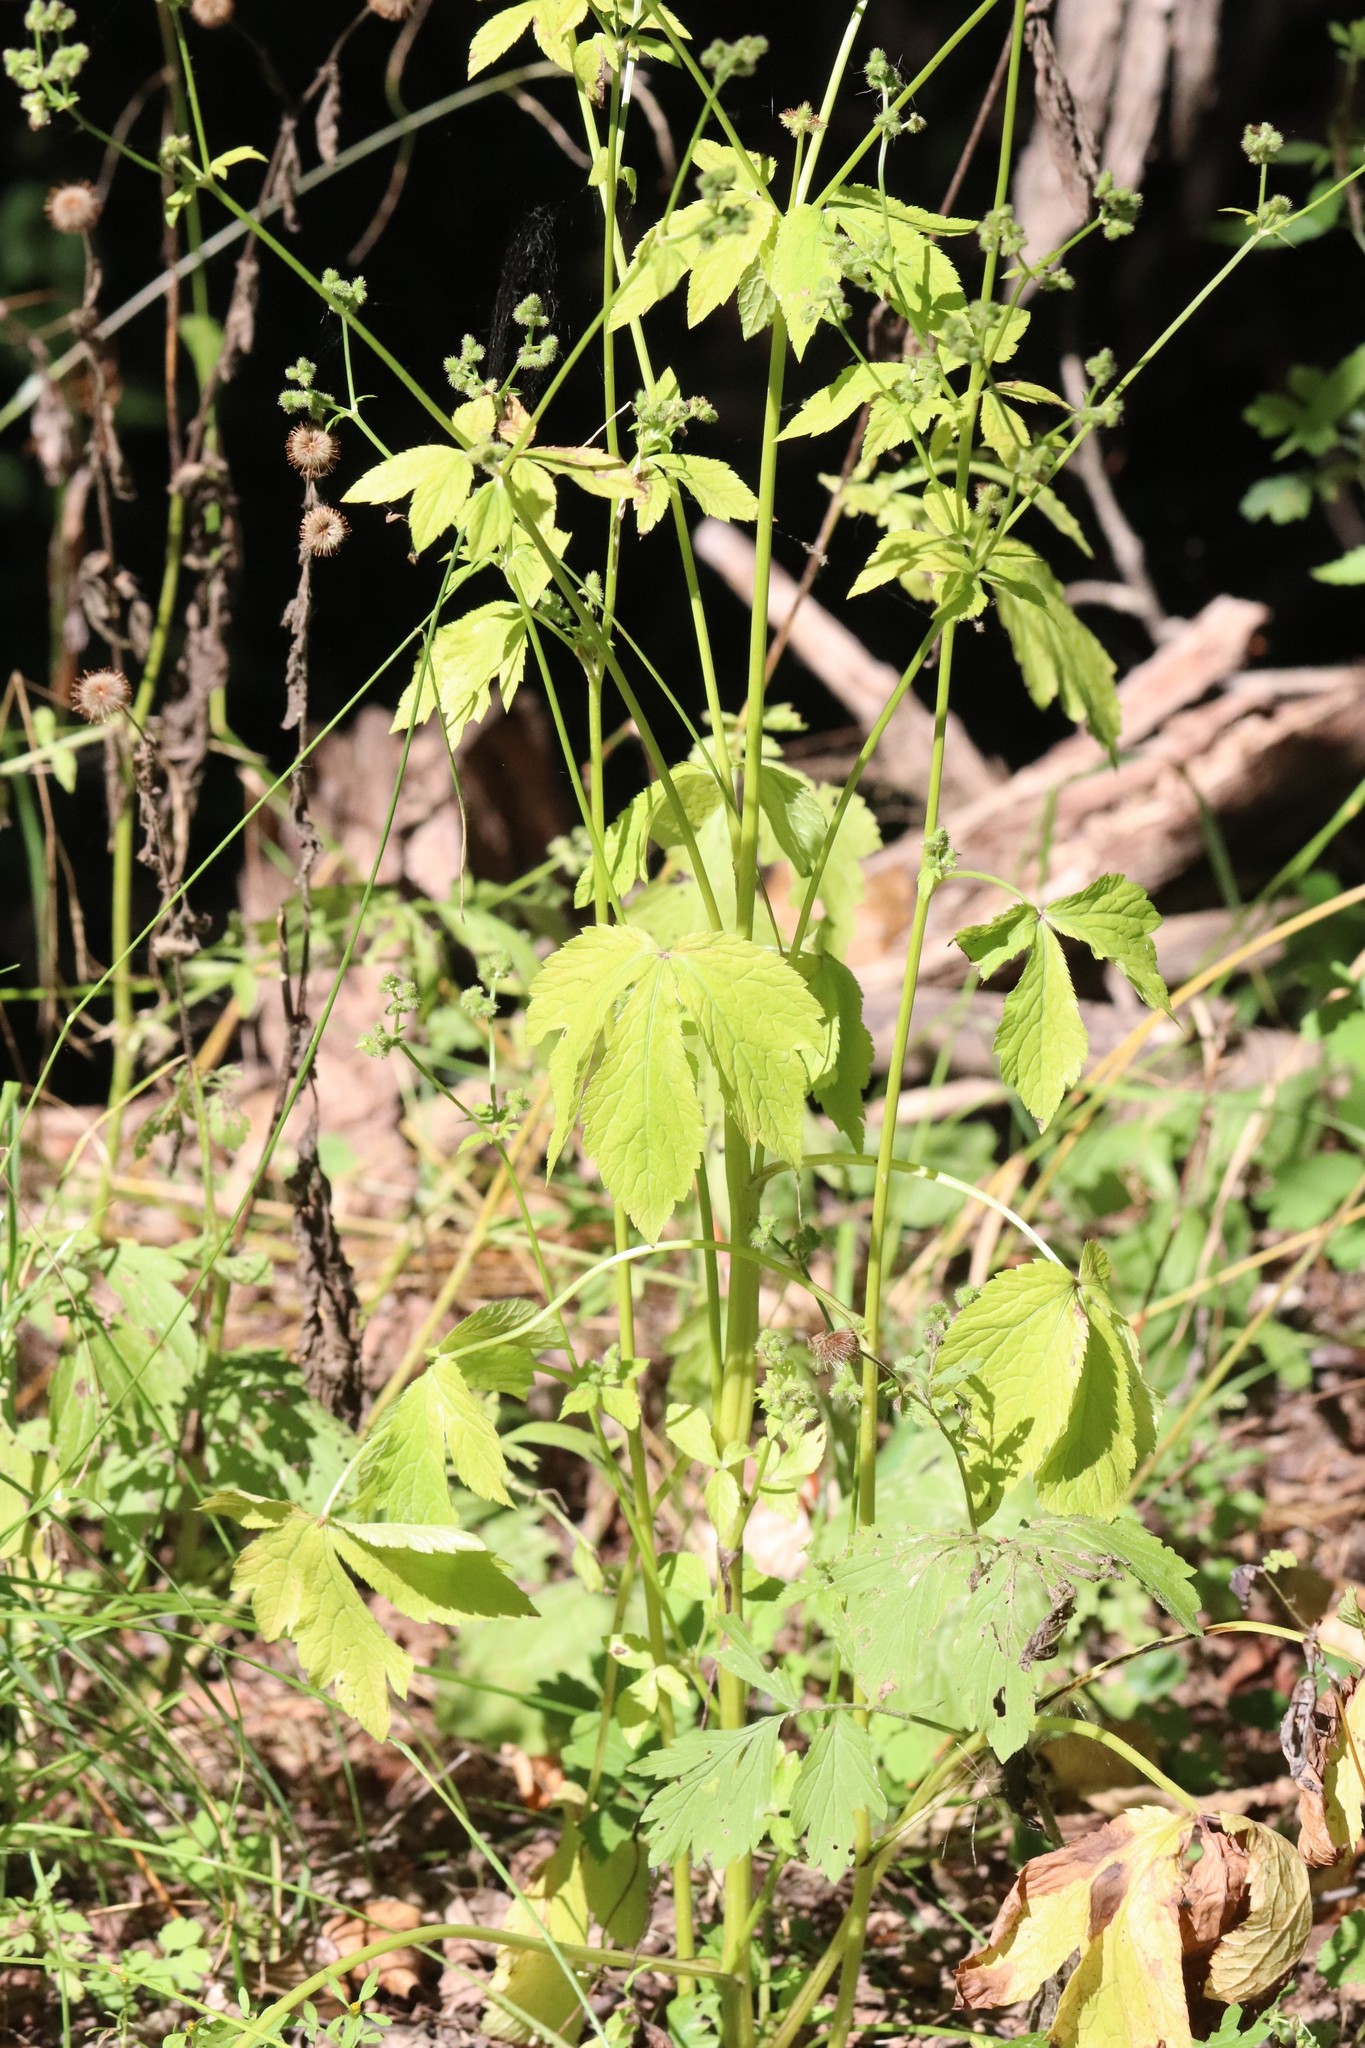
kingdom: Plantae
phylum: Tracheophyta
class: Magnoliopsida
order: Apiales
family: Apiaceae
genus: Sanicula
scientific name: Sanicula chinensis
